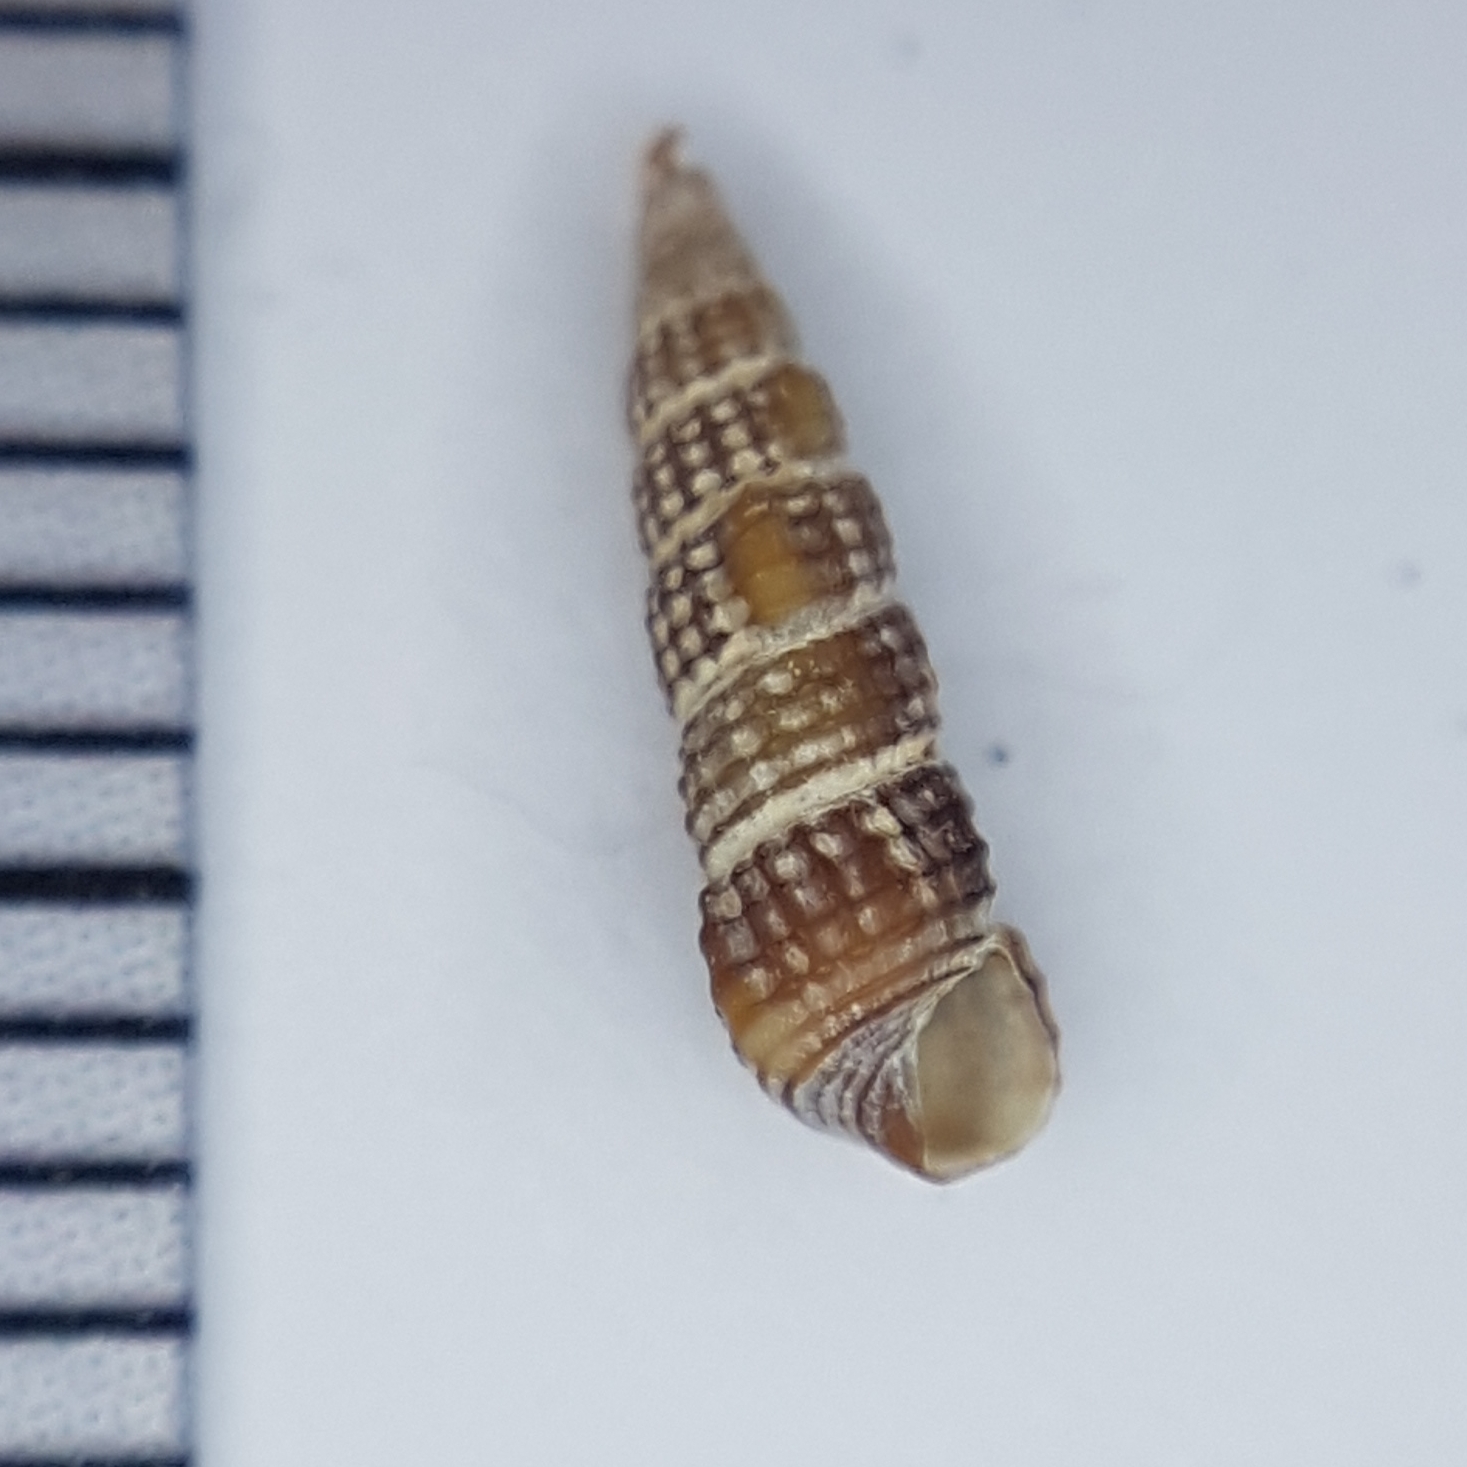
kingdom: Animalia
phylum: Mollusca
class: Gastropoda
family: Cerithiidae
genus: Bittium
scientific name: Bittium reticulatum
